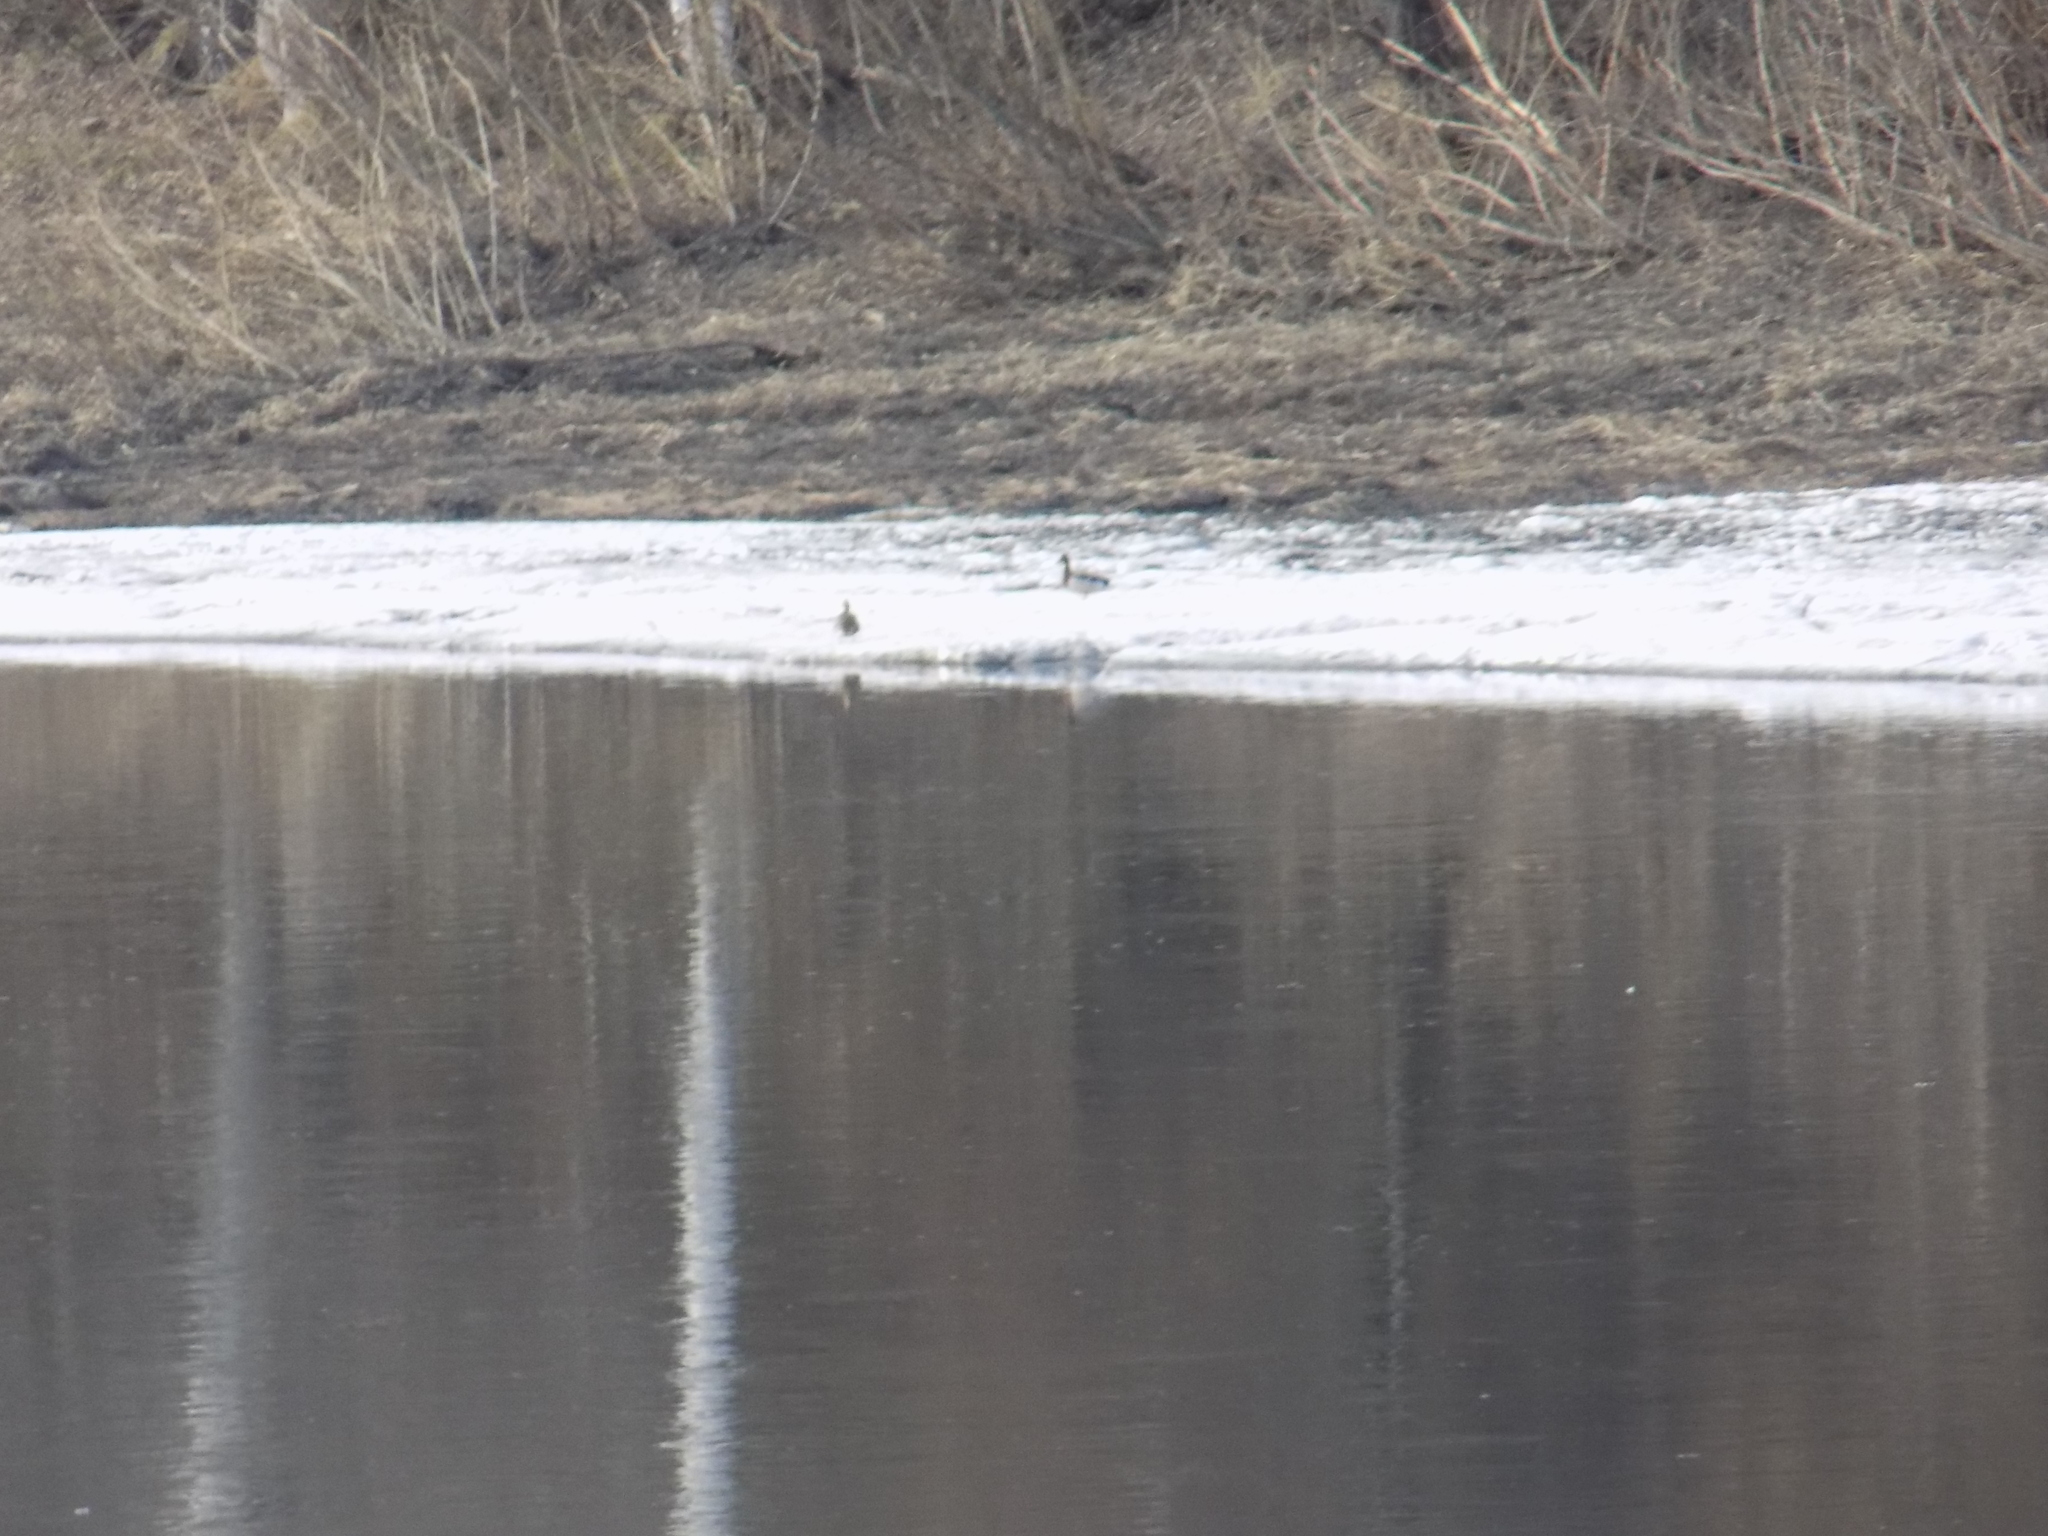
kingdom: Animalia
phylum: Chordata
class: Aves
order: Anseriformes
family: Anatidae
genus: Anas
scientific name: Anas platyrhynchos
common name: Mallard
